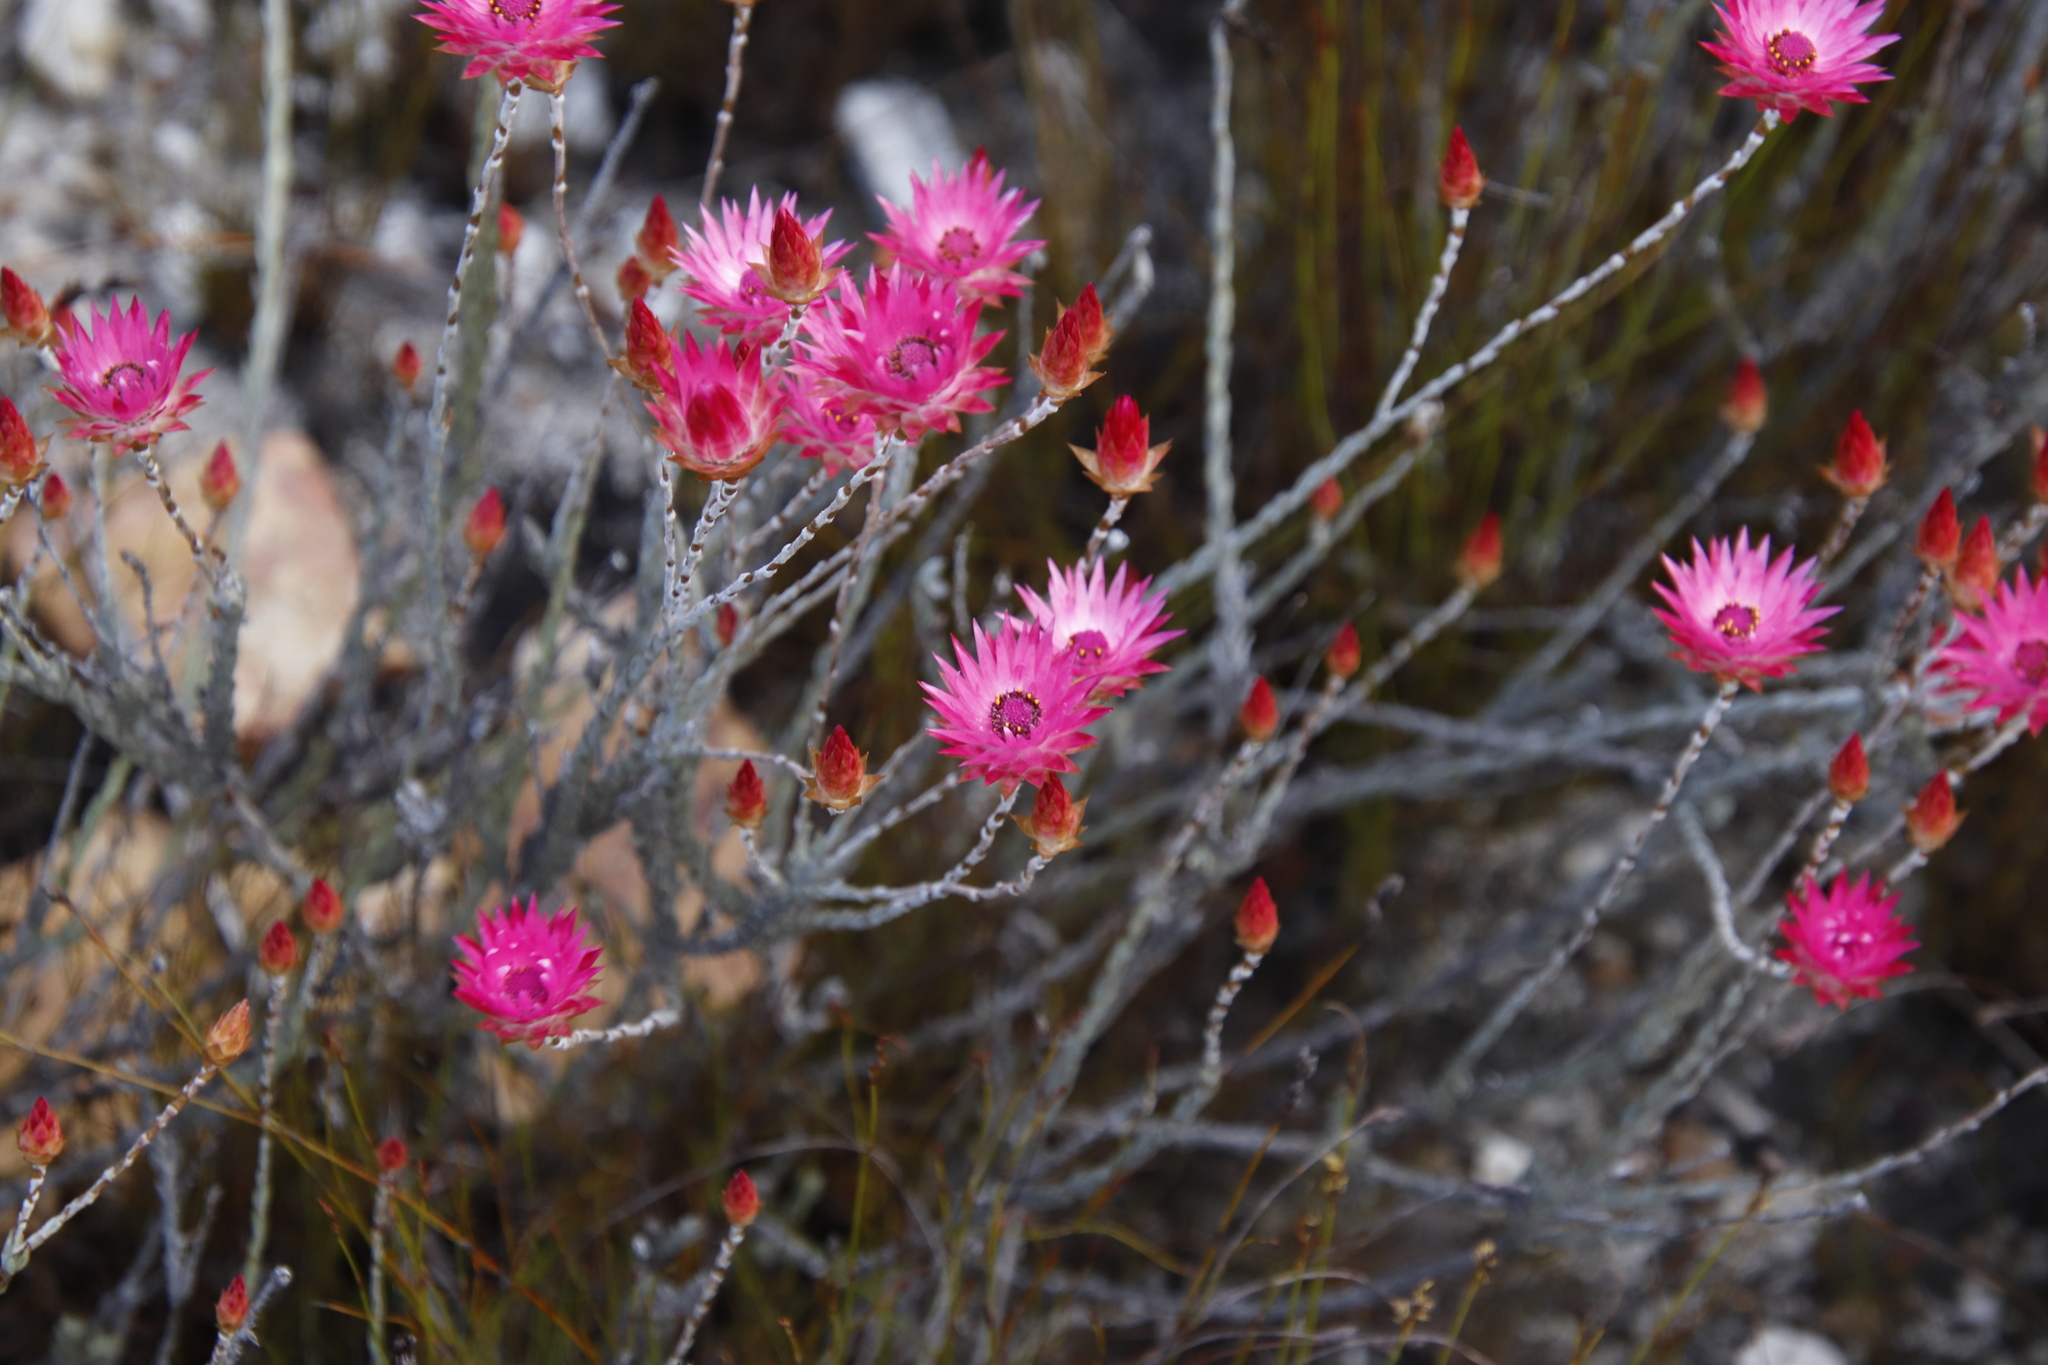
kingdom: Plantae
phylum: Tracheophyta
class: Magnoliopsida
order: Asterales
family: Asteraceae
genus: Syncarpha
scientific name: Syncarpha canescens
